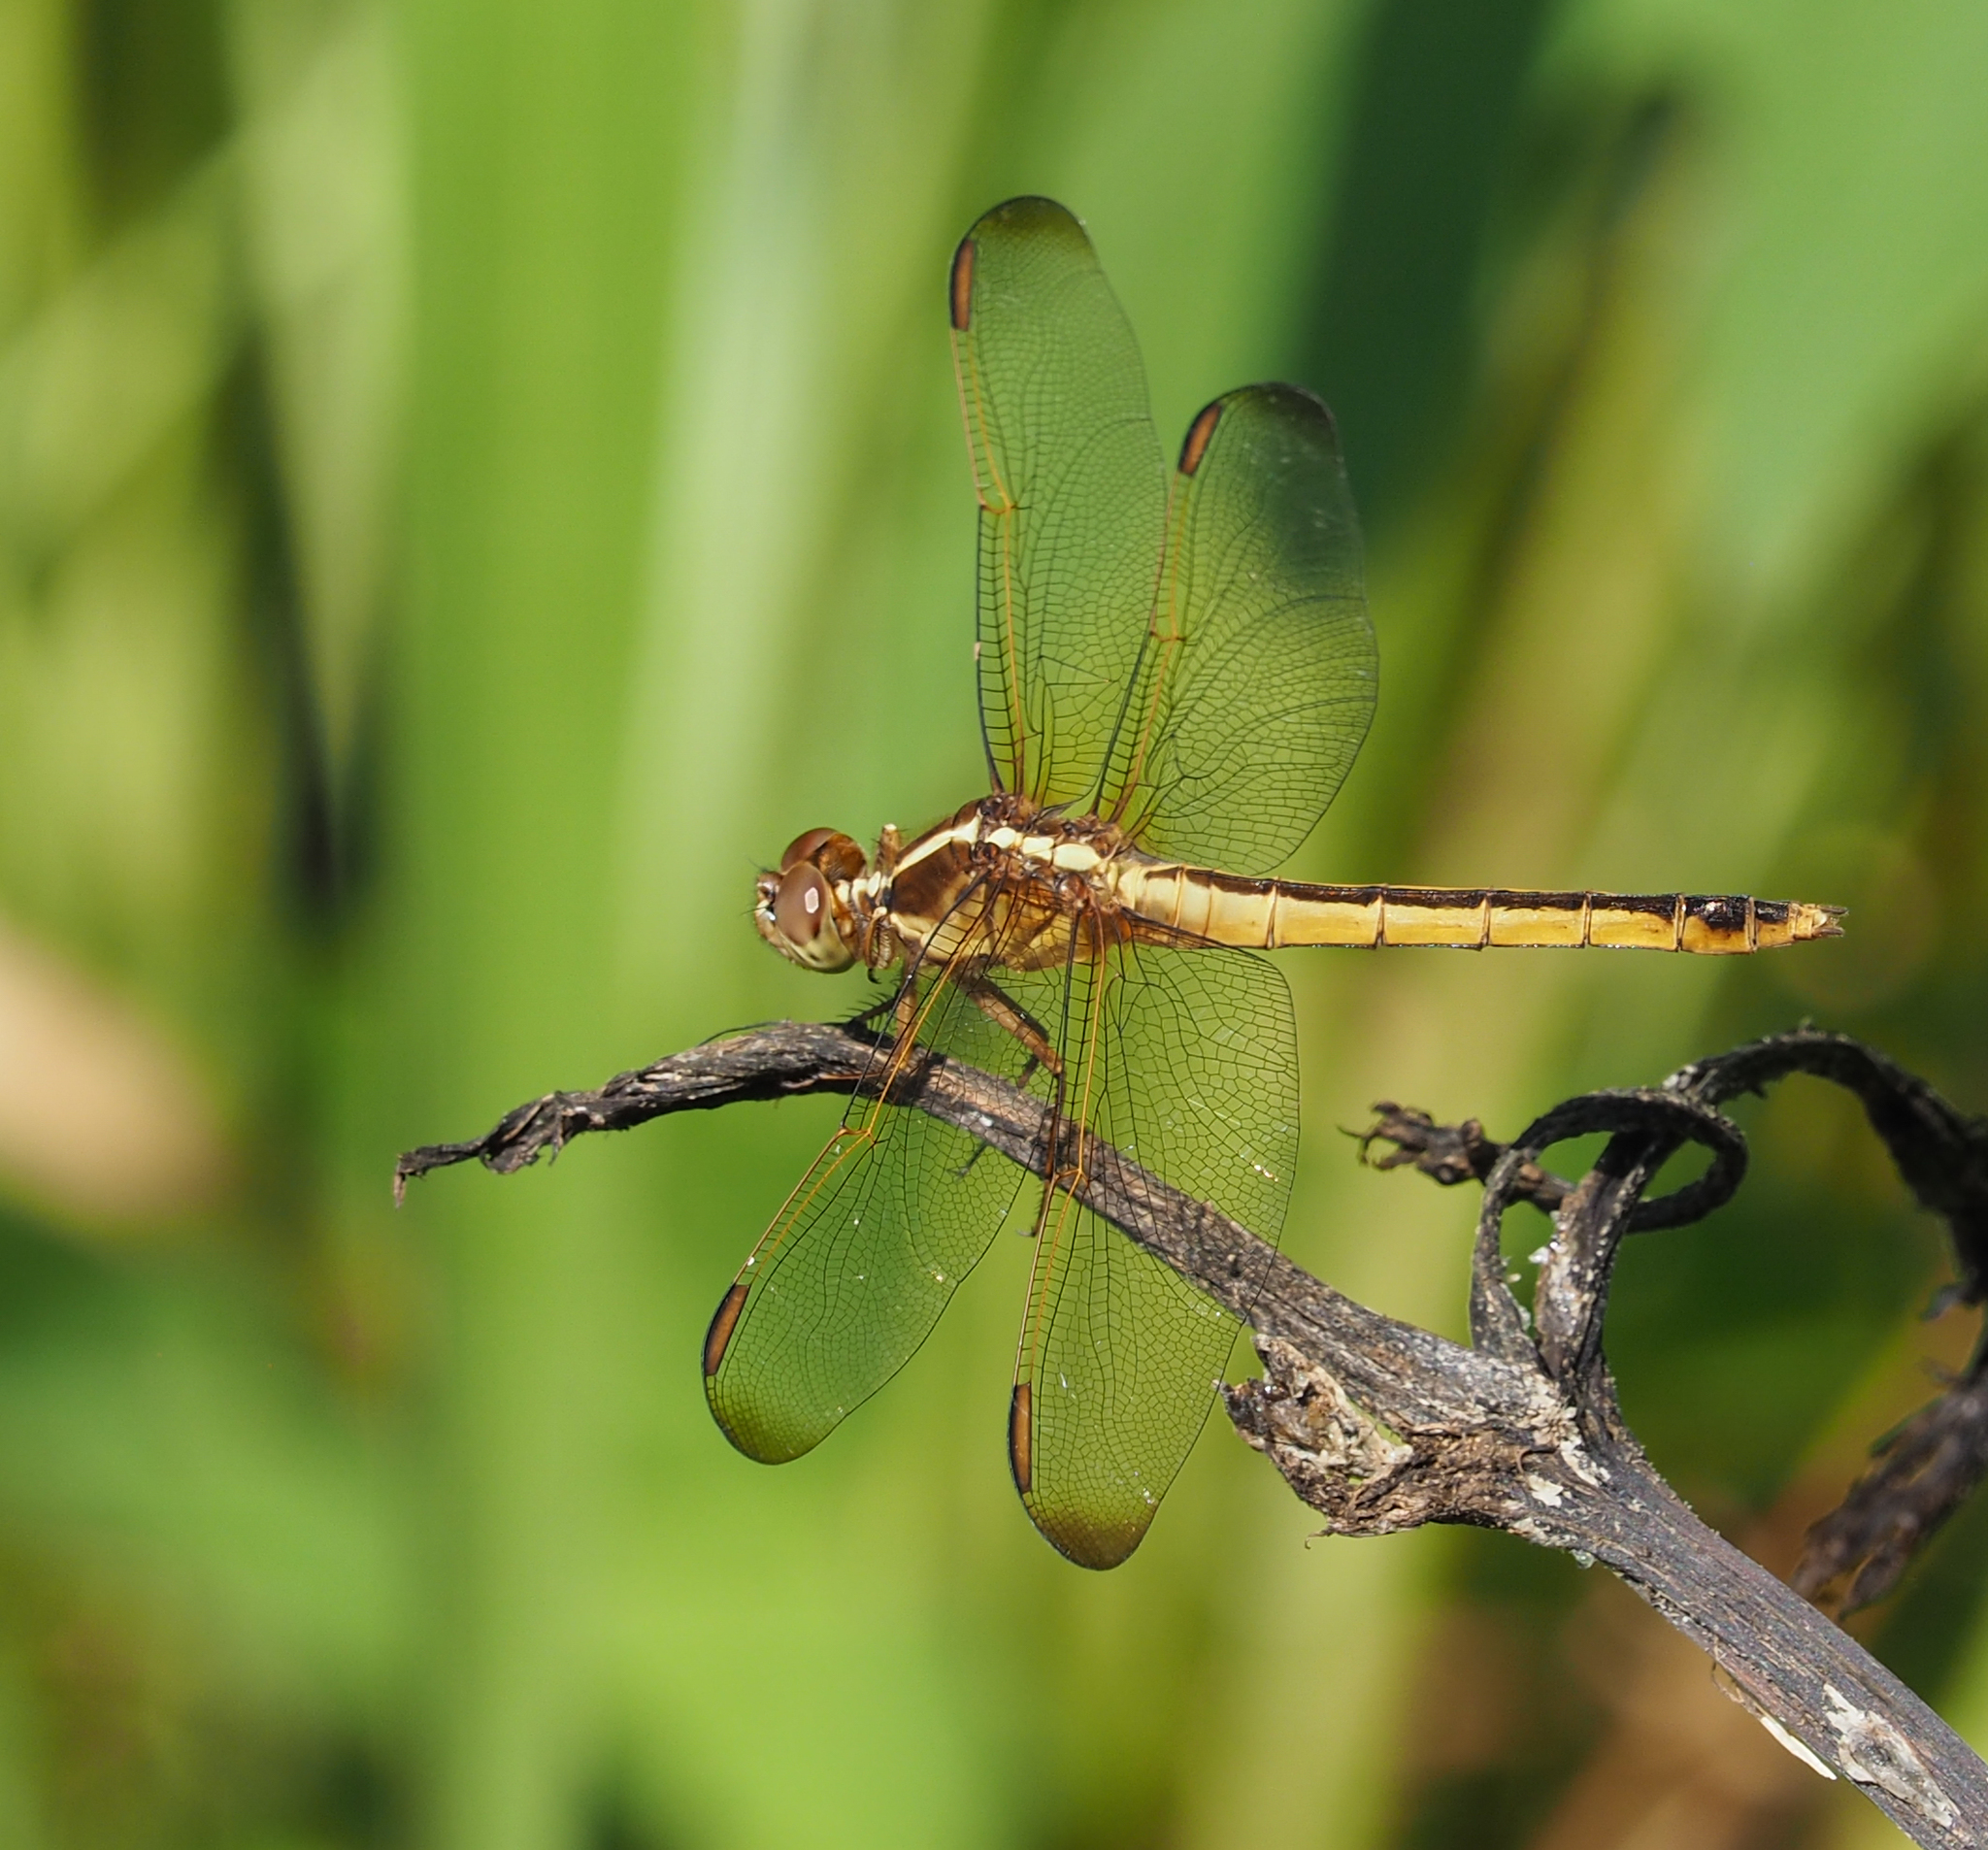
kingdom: Animalia
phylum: Arthropoda
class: Insecta
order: Odonata
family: Libellulidae
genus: Libellula
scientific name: Libellula needhami
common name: Needham's skimmer
